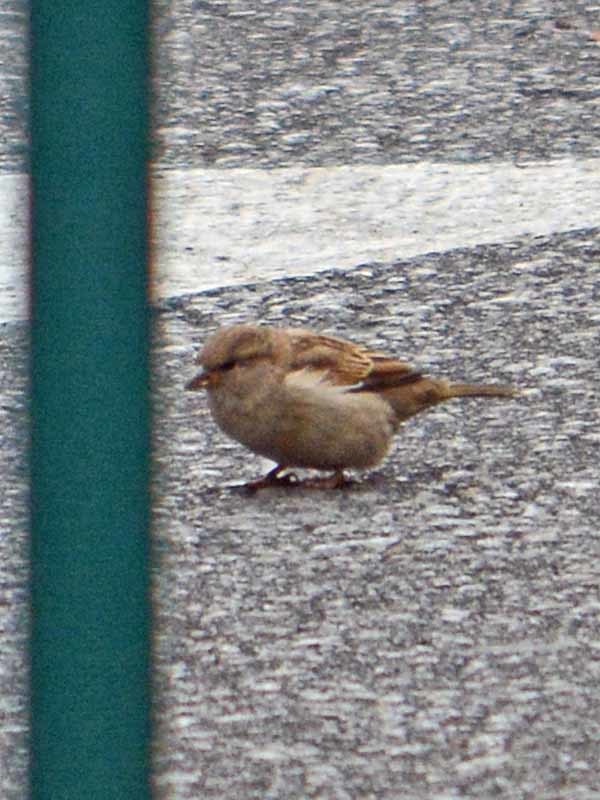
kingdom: Animalia
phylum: Chordata
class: Aves
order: Passeriformes
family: Passeridae
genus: Passer
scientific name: Passer domesticus
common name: House sparrow
